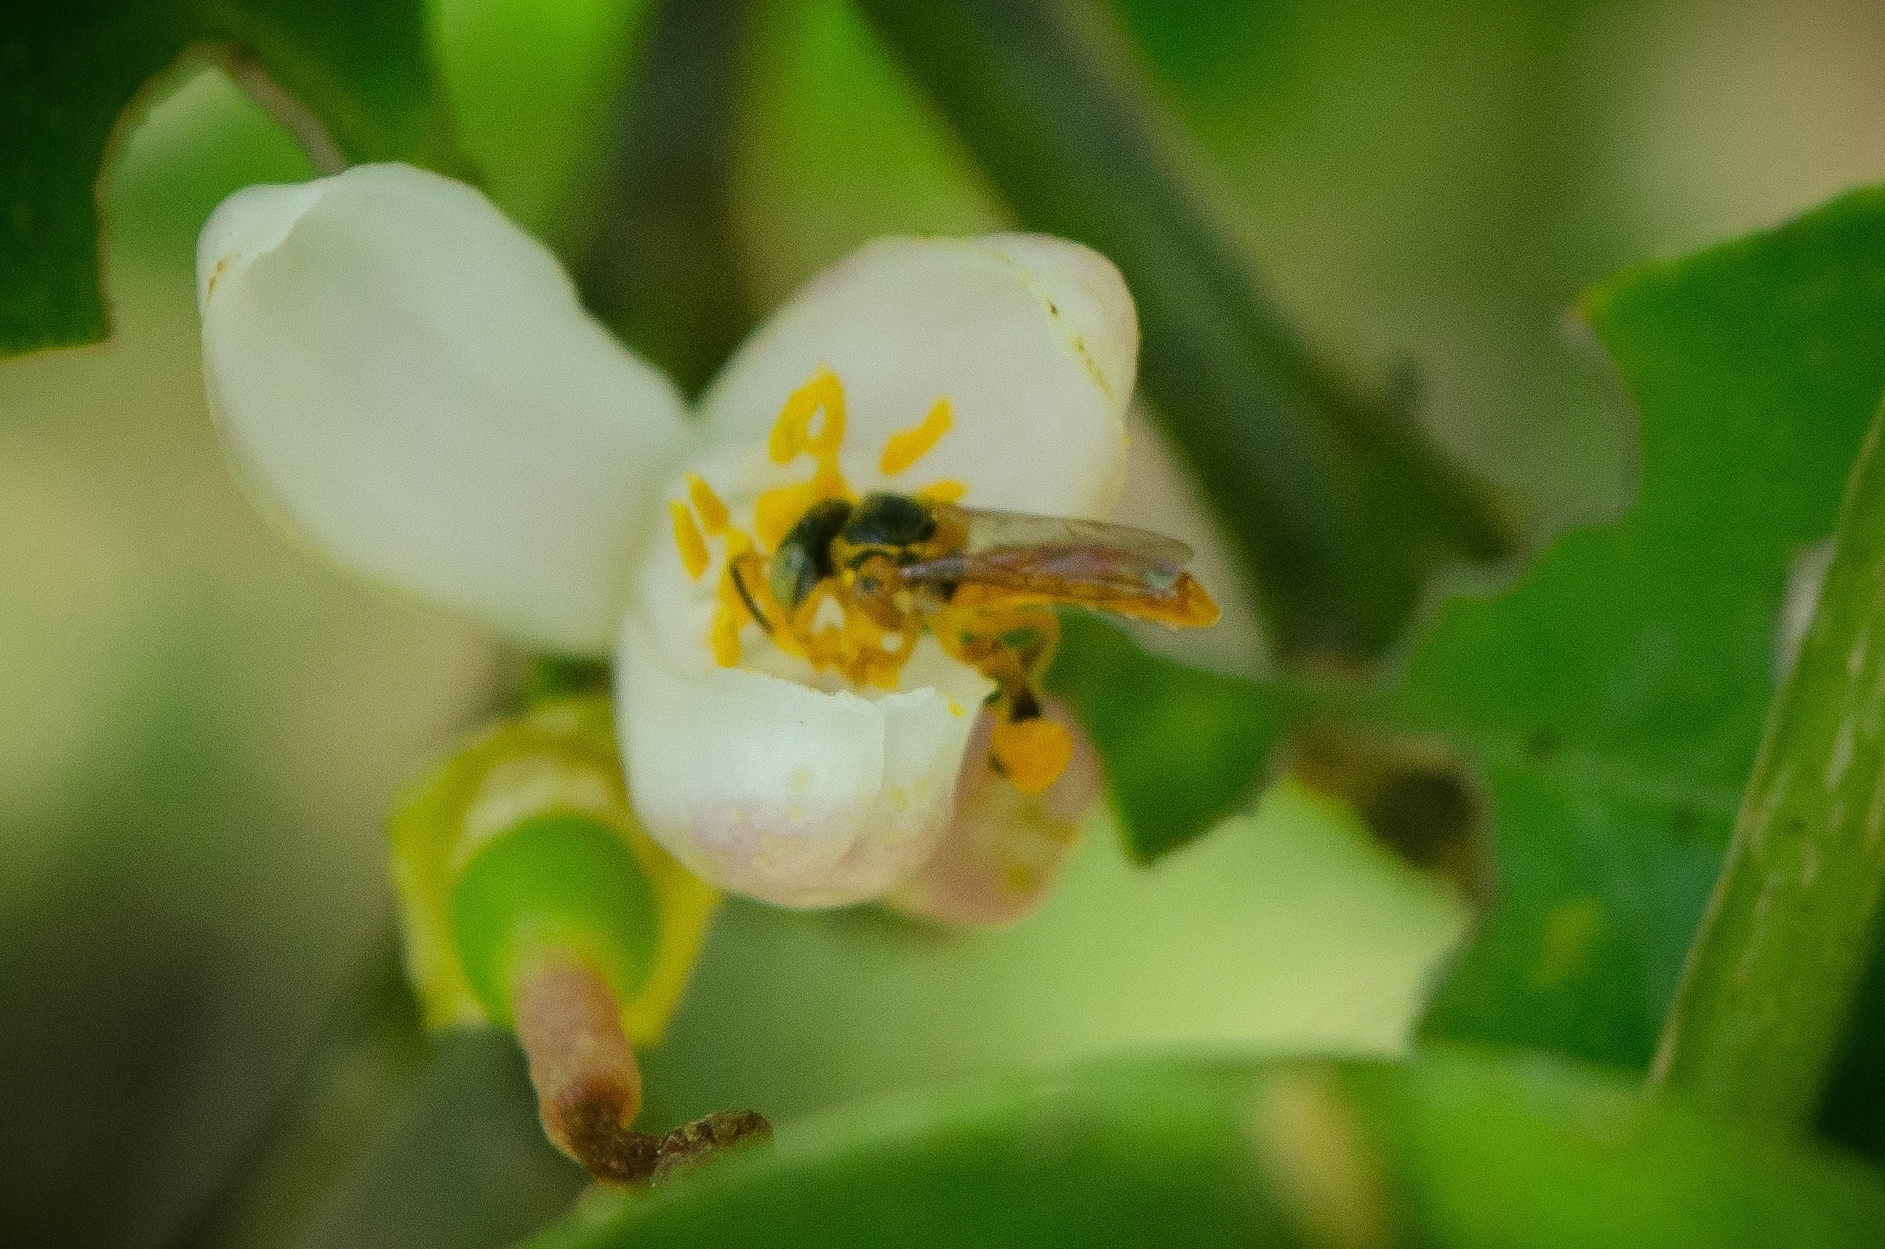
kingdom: Animalia
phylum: Arthropoda
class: Insecta
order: Hymenoptera
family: Apidae
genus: Tetragonisca
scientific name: Tetragonisca fiebrigi
